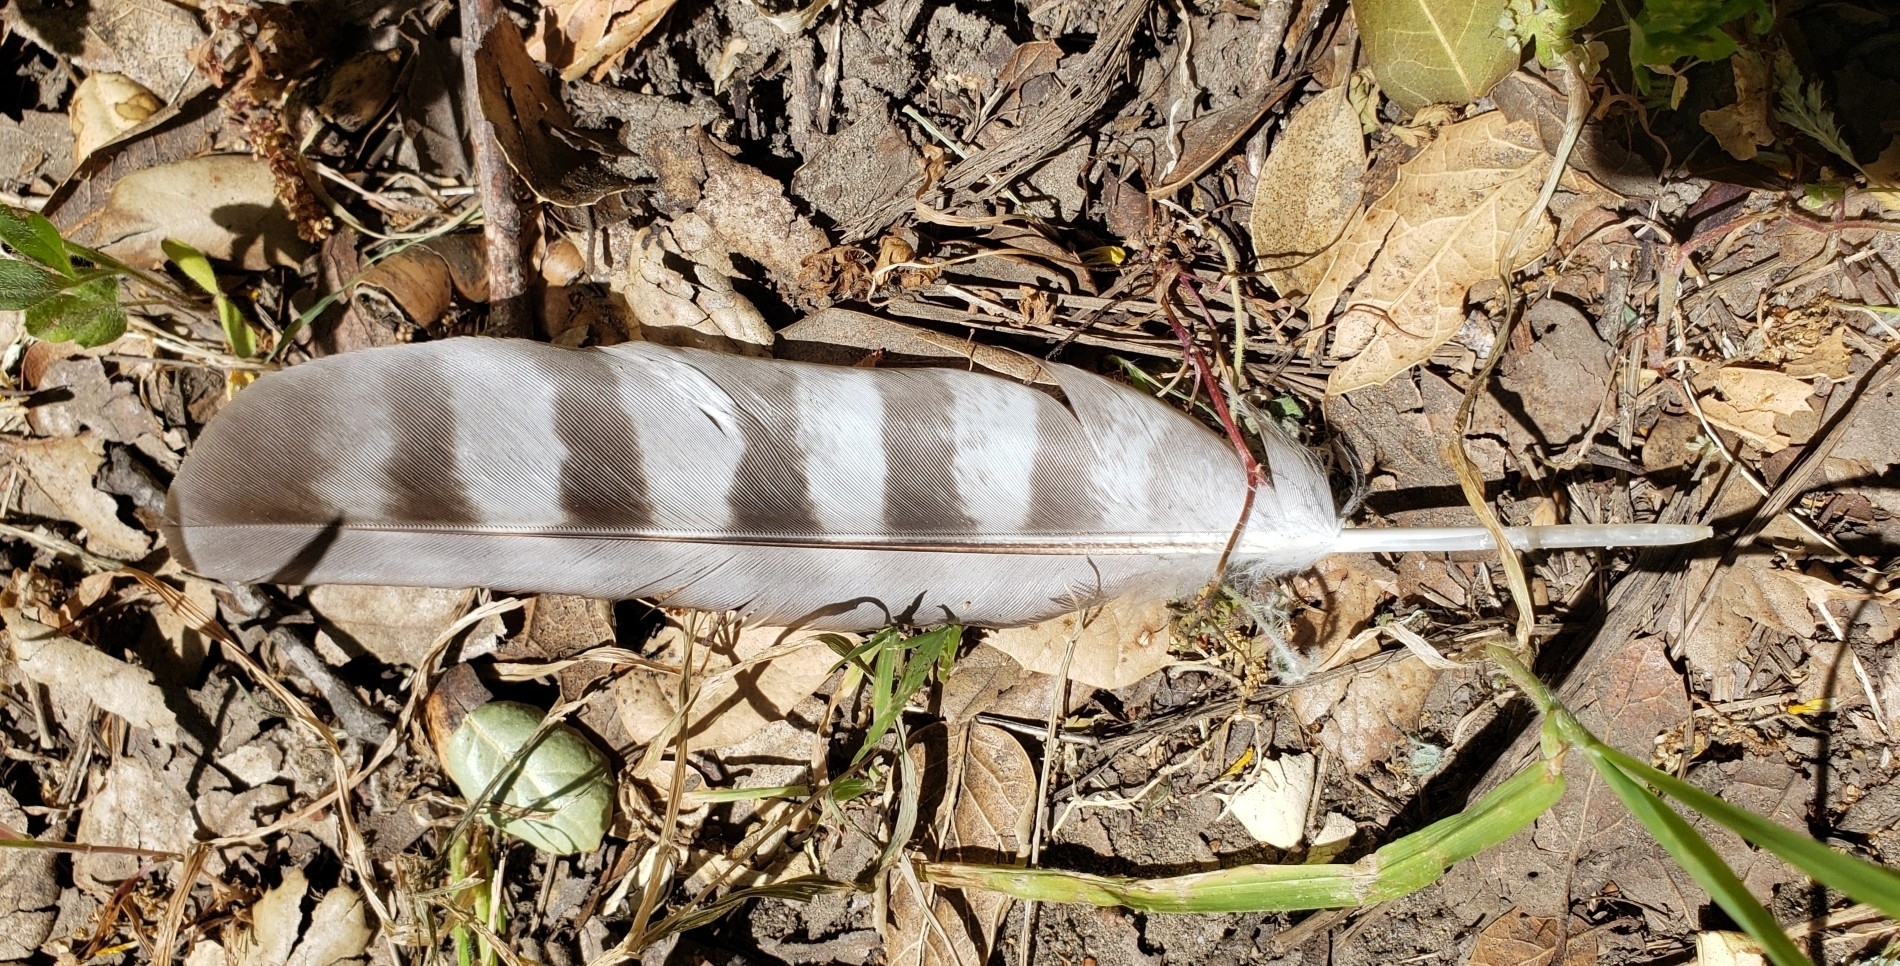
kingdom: Animalia
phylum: Chordata
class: Aves
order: Accipitriformes
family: Accipitridae
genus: Accipiter
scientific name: Accipiter cooperii
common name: Cooper's hawk
